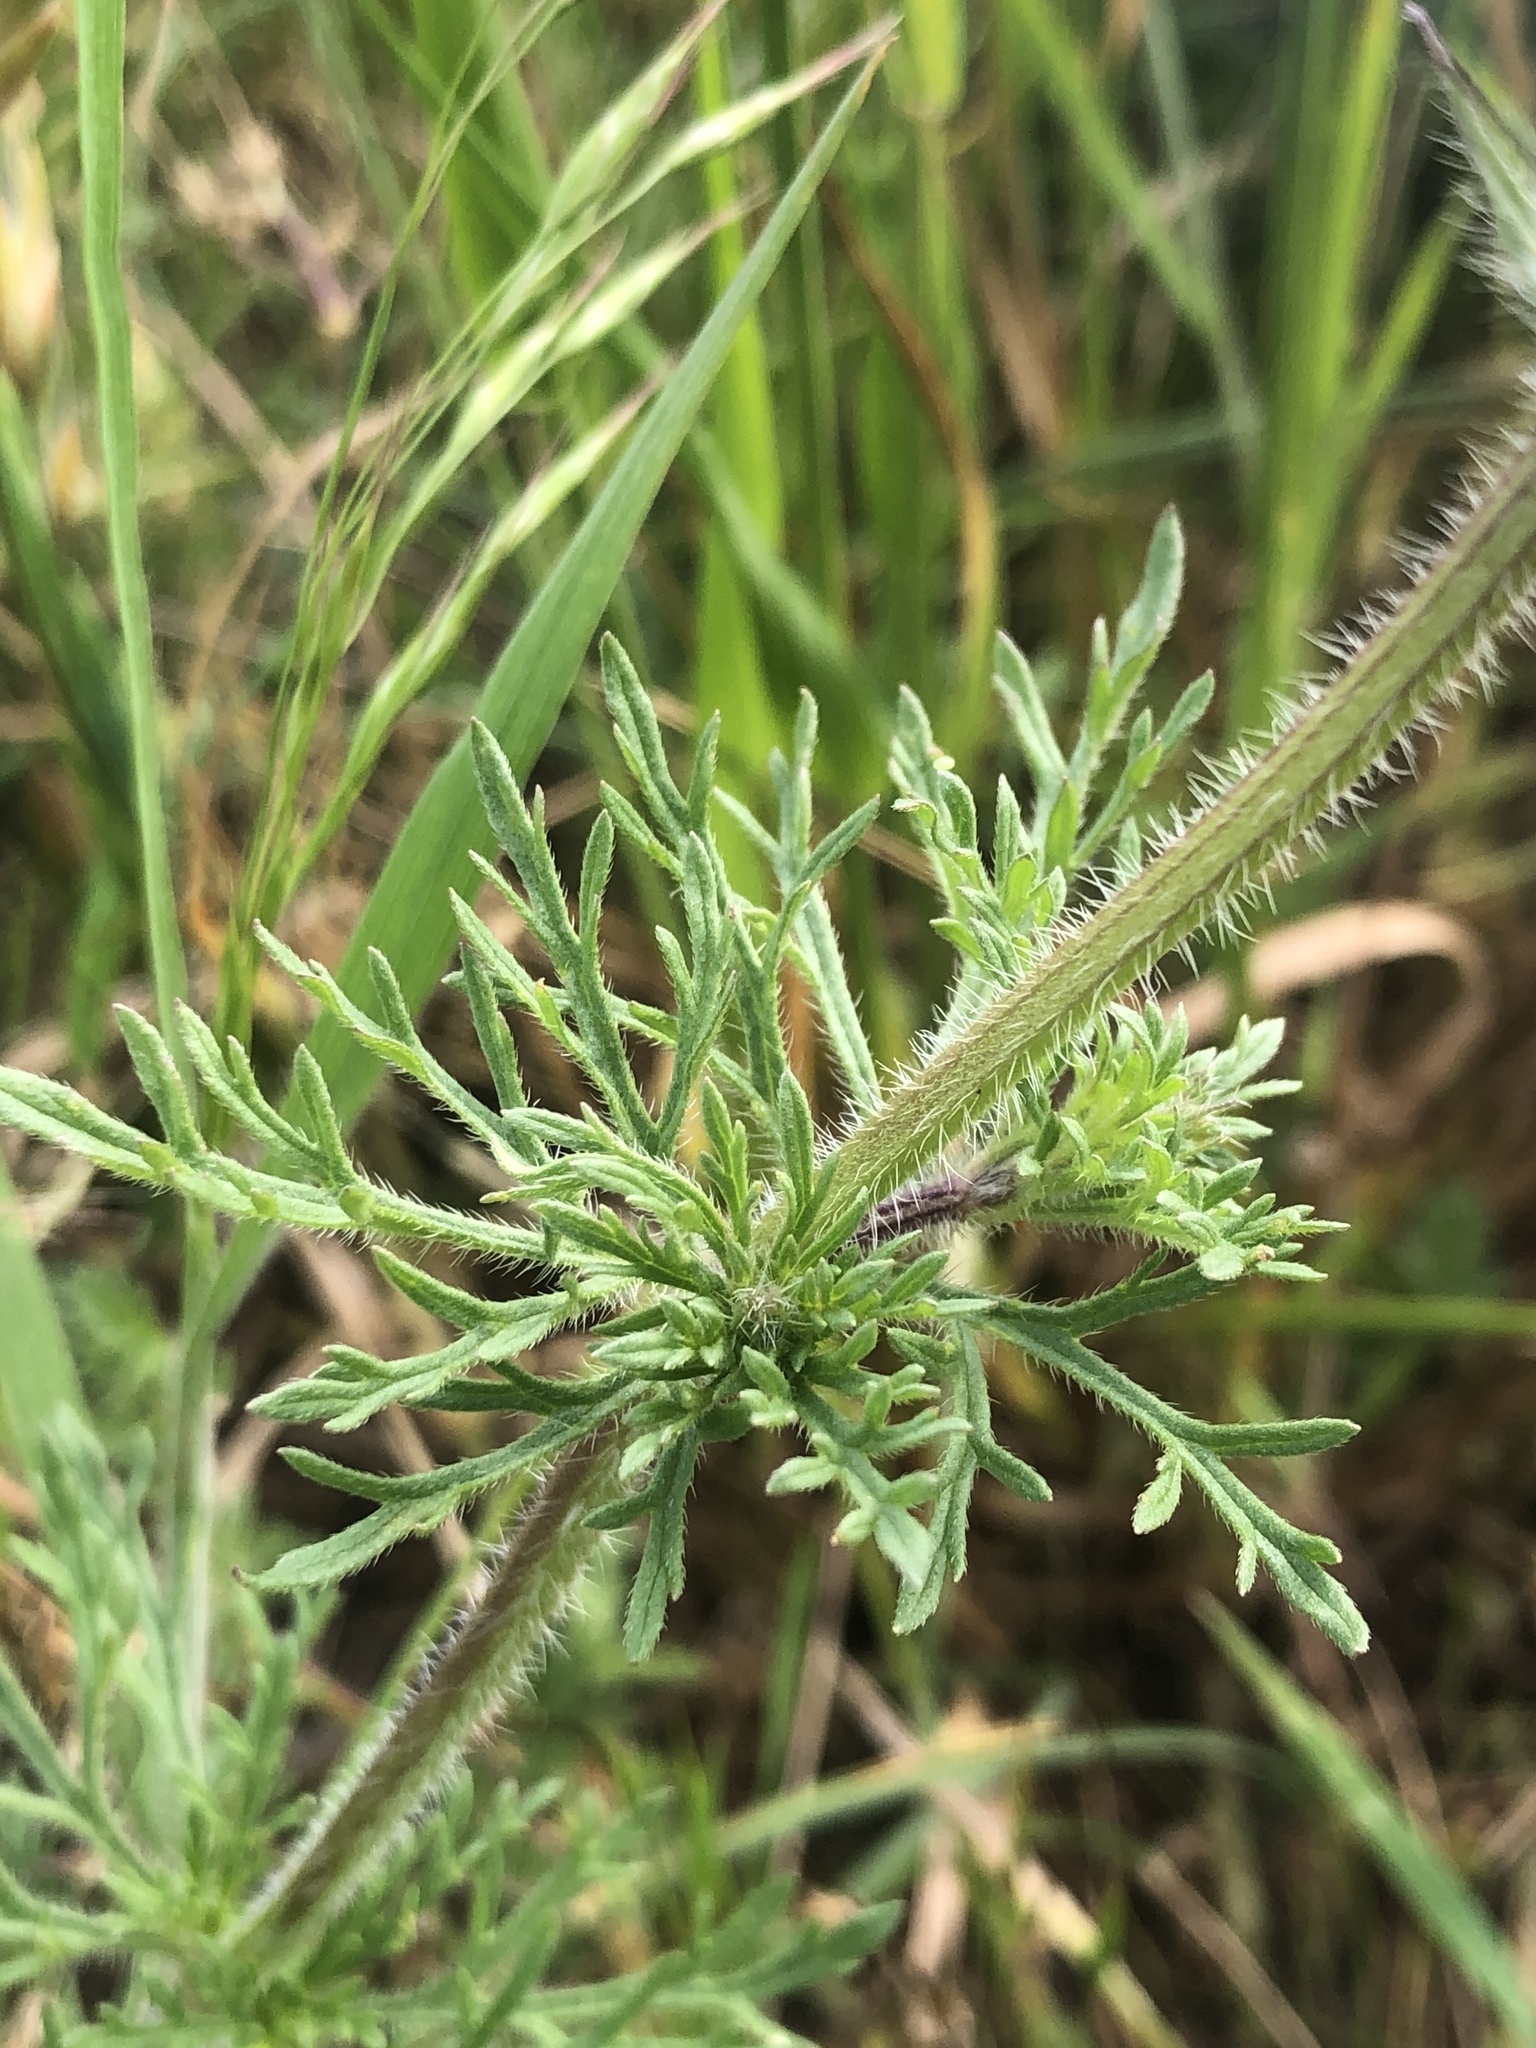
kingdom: Plantae
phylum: Tracheophyta
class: Magnoliopsida
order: Lamiales
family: Verbenaceae
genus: Verbena
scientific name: Verbena bipinnatifida
